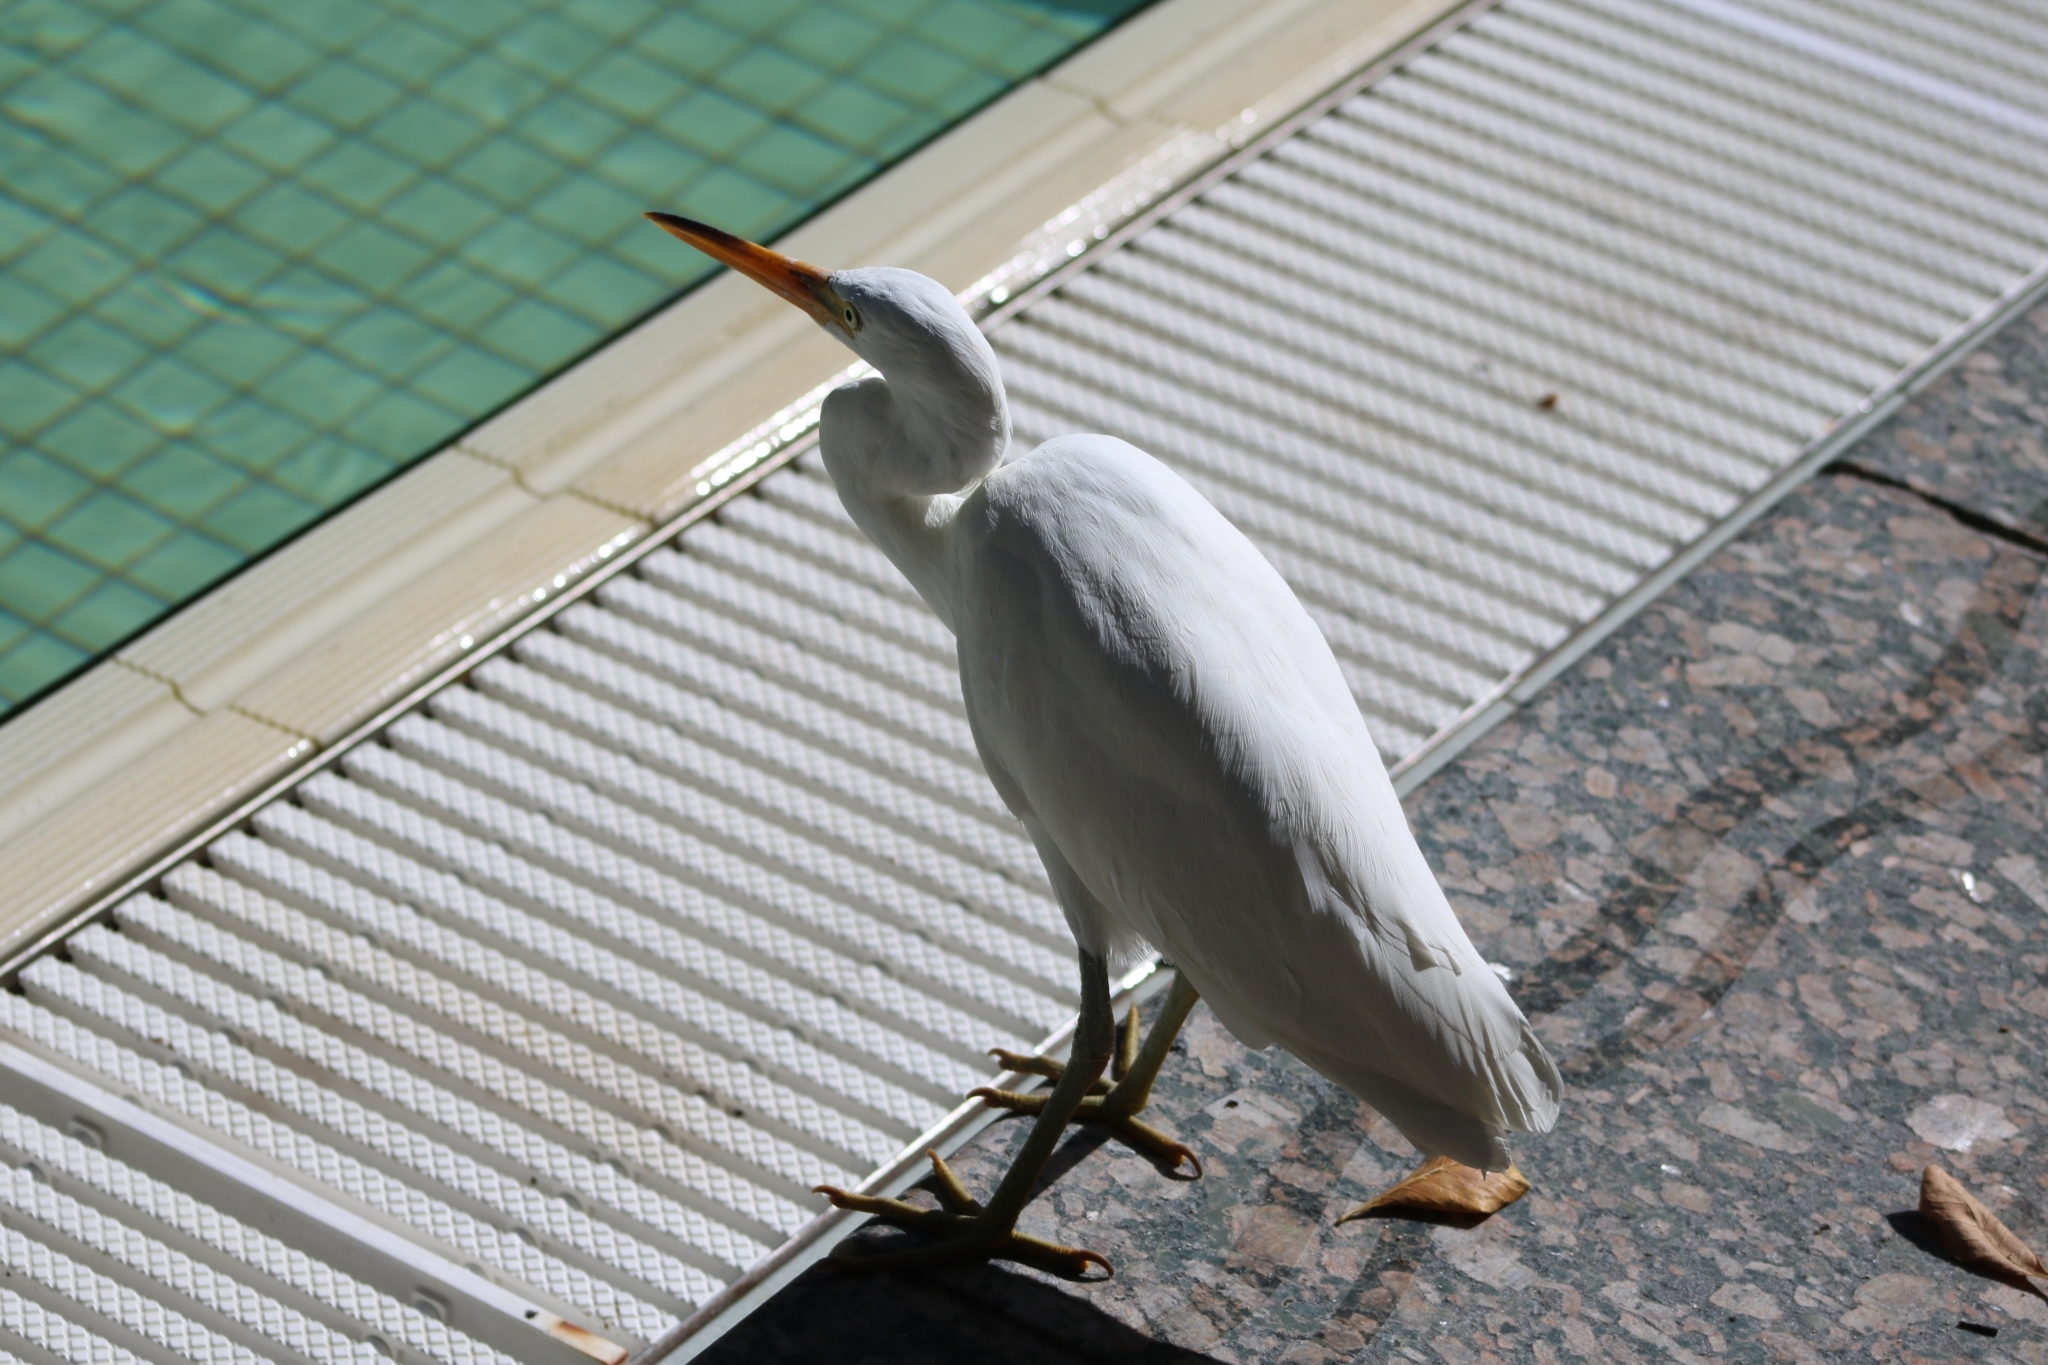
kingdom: Animalia
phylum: Chordata
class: Aves
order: Pelecaniformes
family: Ardeidae
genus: Egretta
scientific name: Egretta sacra
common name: Pacific reef heron
